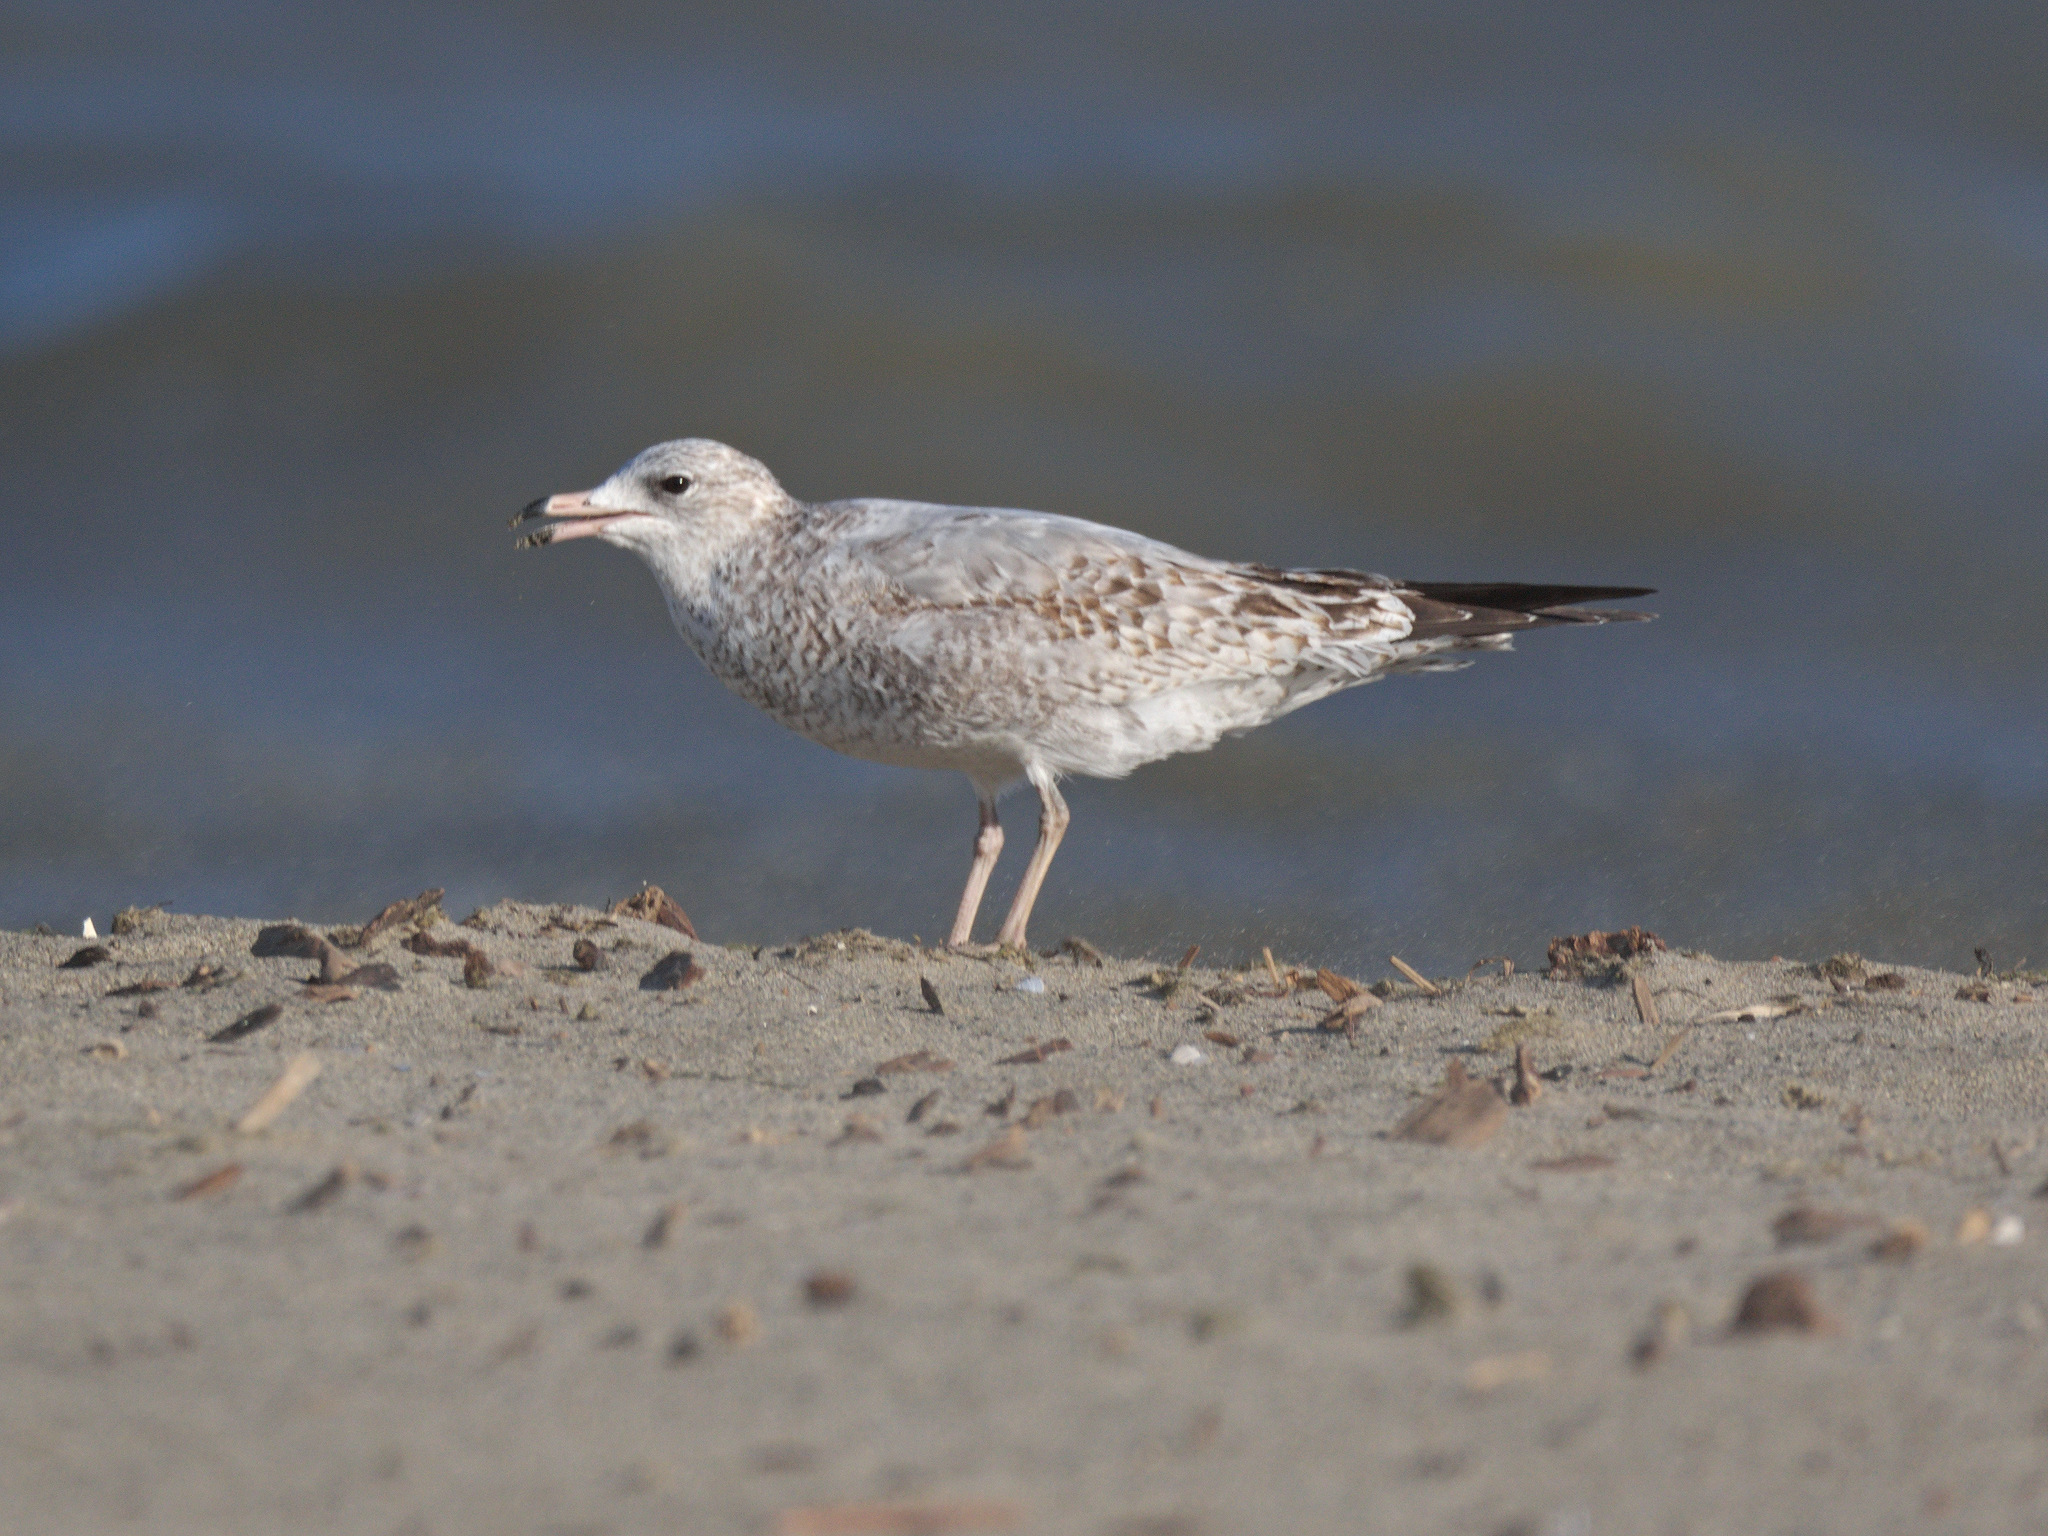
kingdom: Animalia
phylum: Chordata
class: Aves
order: Charadriiformes
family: Laridae
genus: Larus
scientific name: Larus delawarensis
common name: Ring-billed gull
